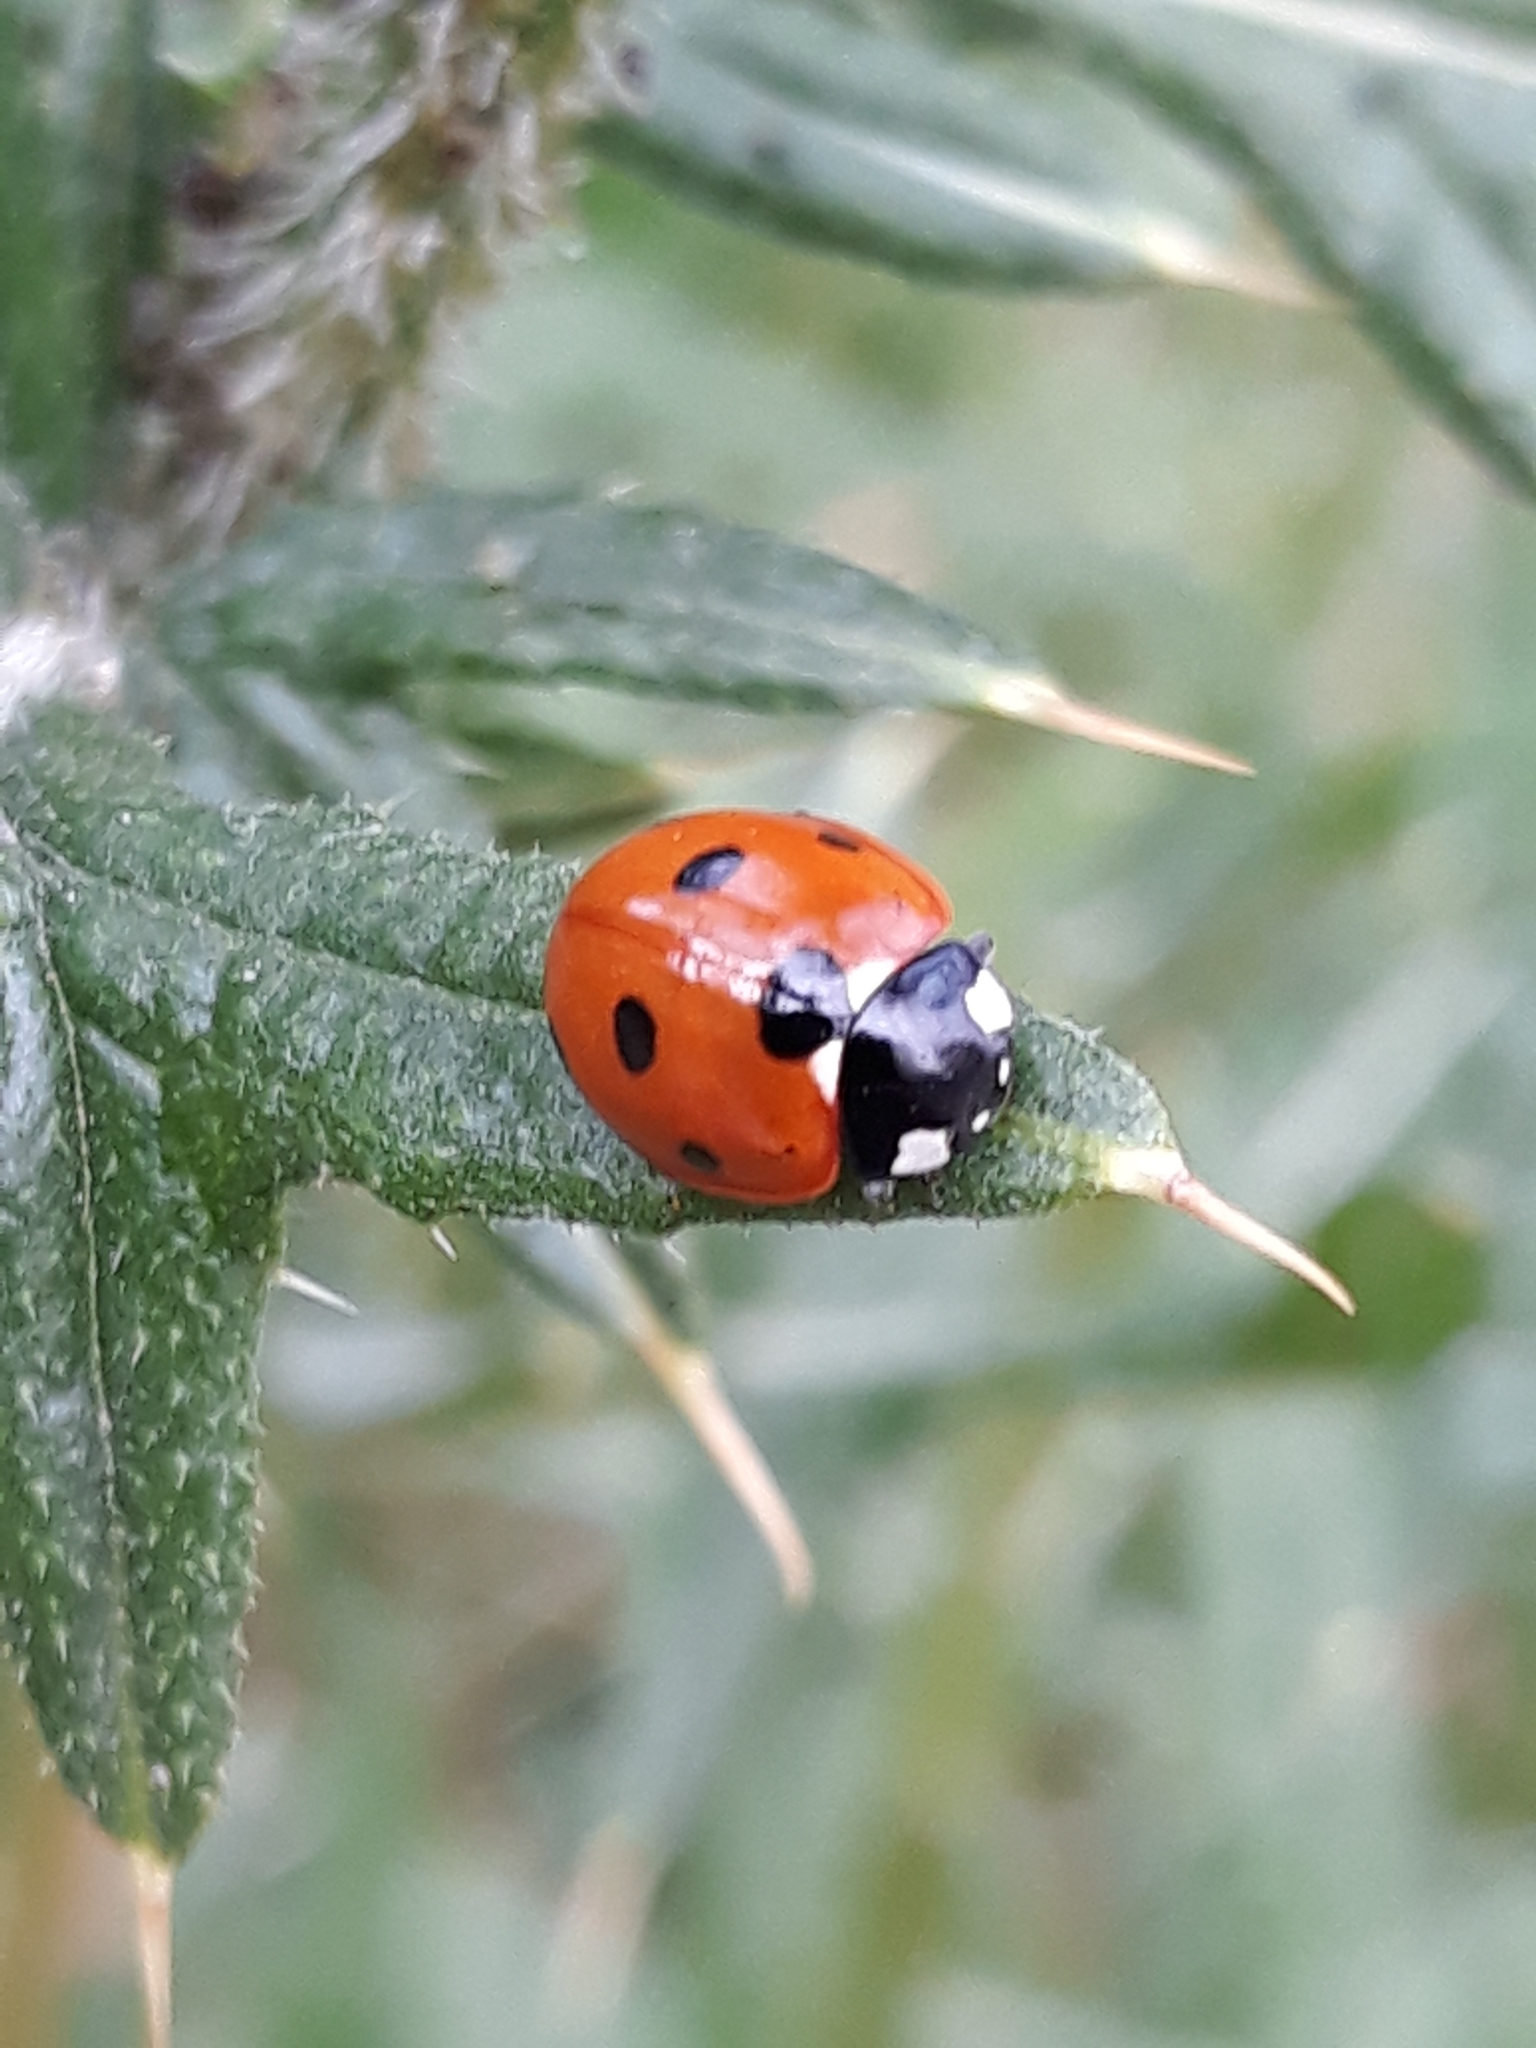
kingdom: Animalia
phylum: Arthropoda
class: Insecta
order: Coleoptera
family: Coccinellidae
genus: Coccinella
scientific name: Coccinella septempunctata
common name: Sevenspotted lady beetle
